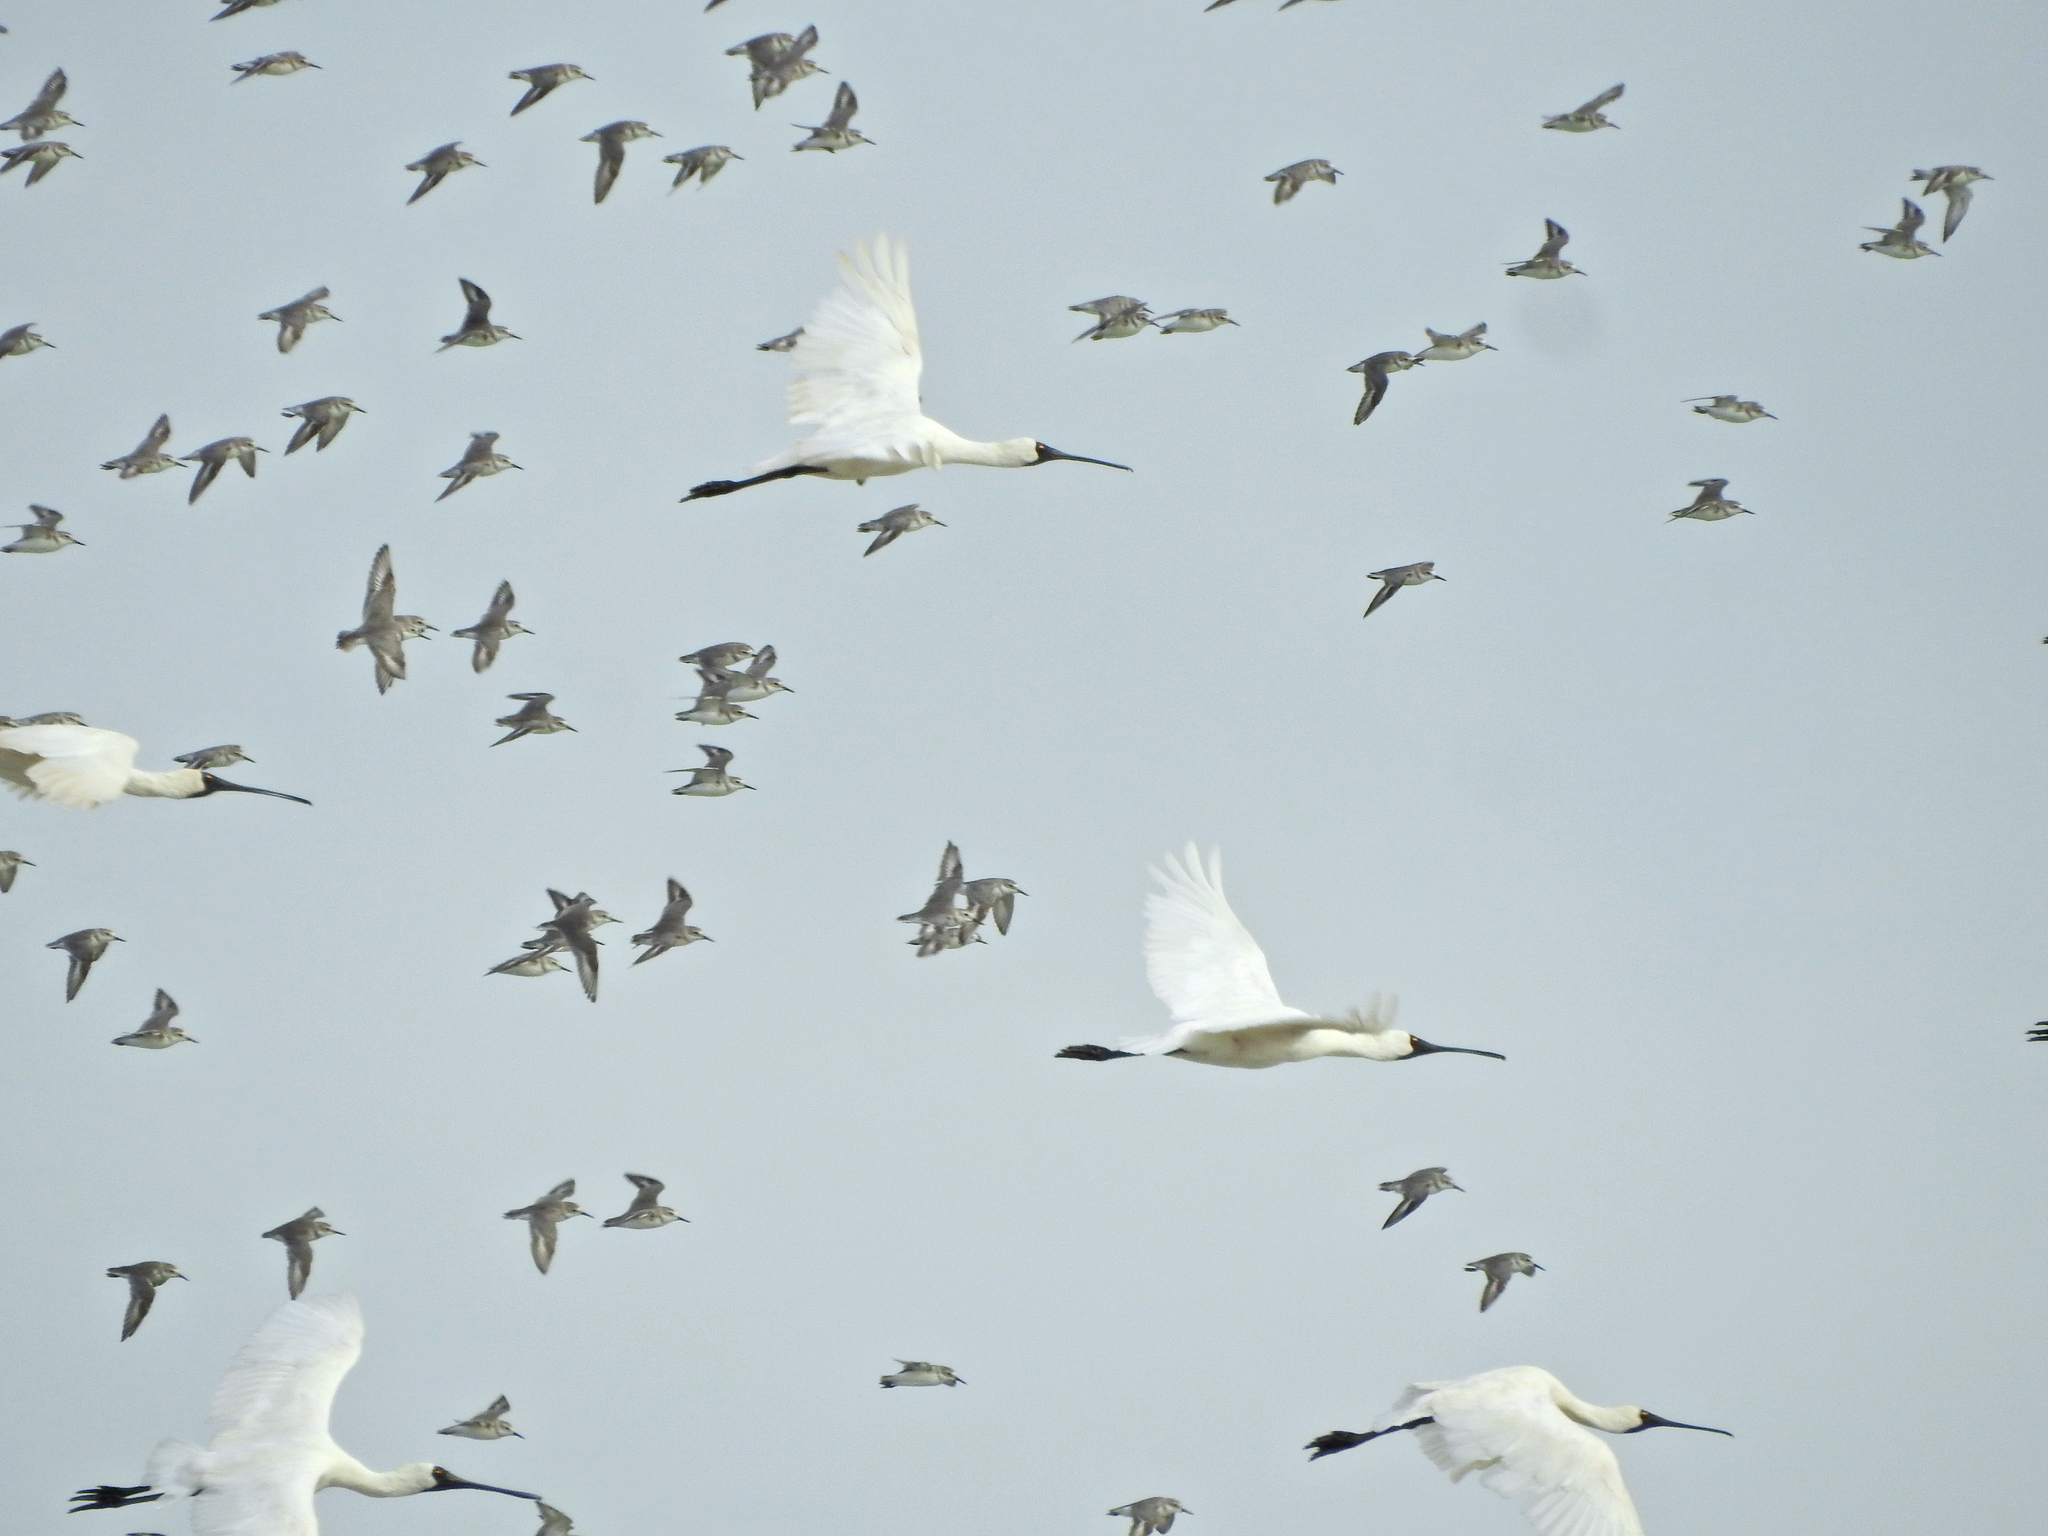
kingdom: Animalia
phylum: Chordata
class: Aves
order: Pelecaniformes
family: Threskiornithidae
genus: Platalea
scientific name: Platalea regia
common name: Royal spoonbill
